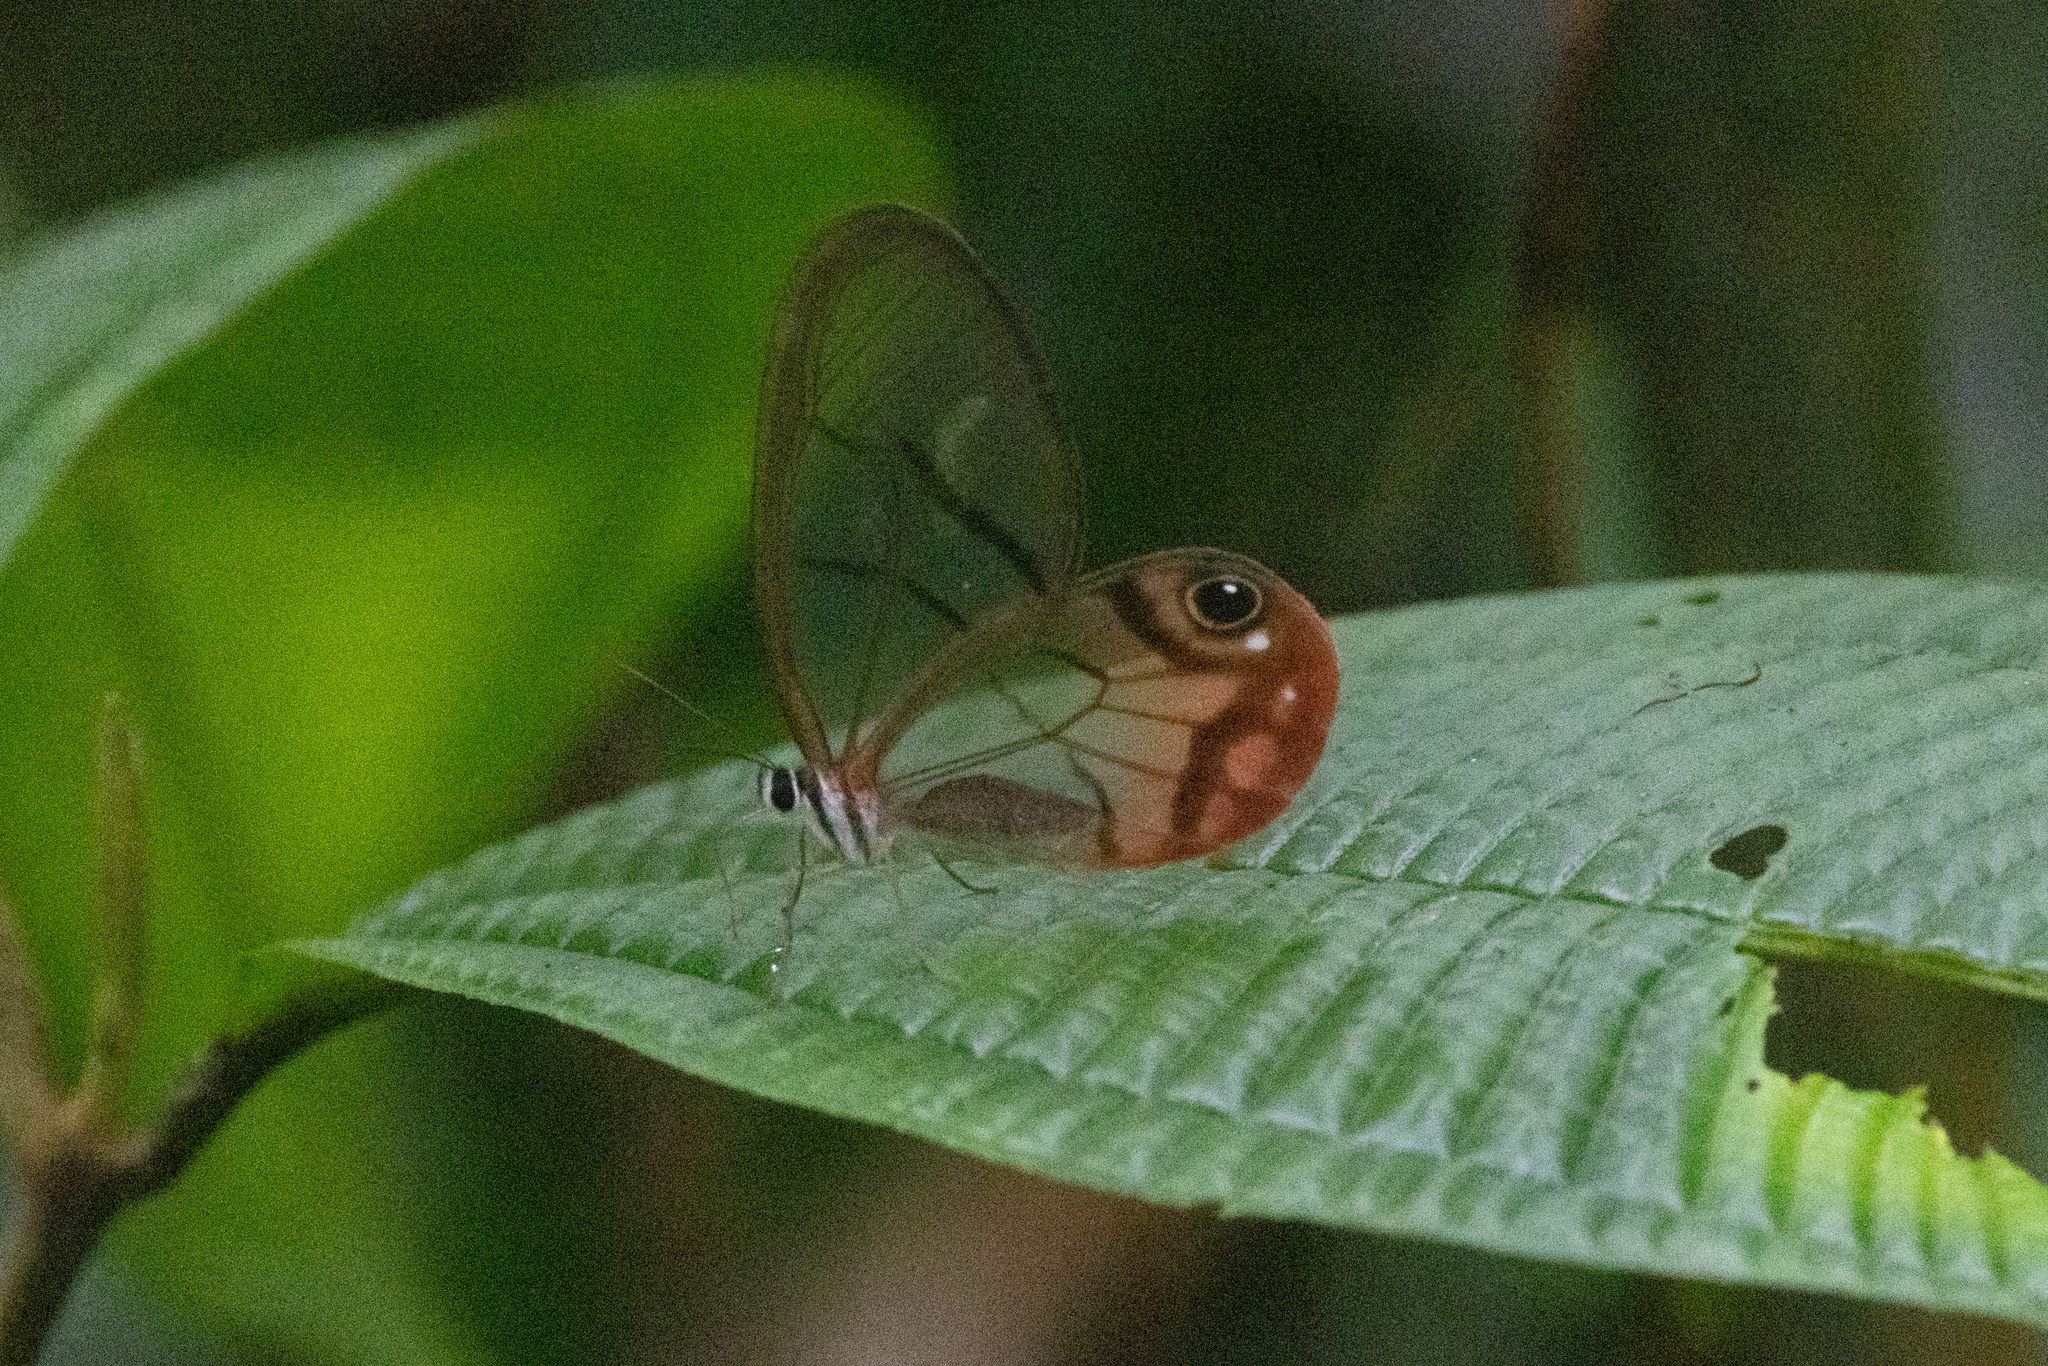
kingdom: Animalia
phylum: Arthropoda
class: Insecta
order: Lepidoptera
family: Nymphalidae
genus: Cithaerias
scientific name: Cithaerias pireta
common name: Rusted clearwing-satyr
